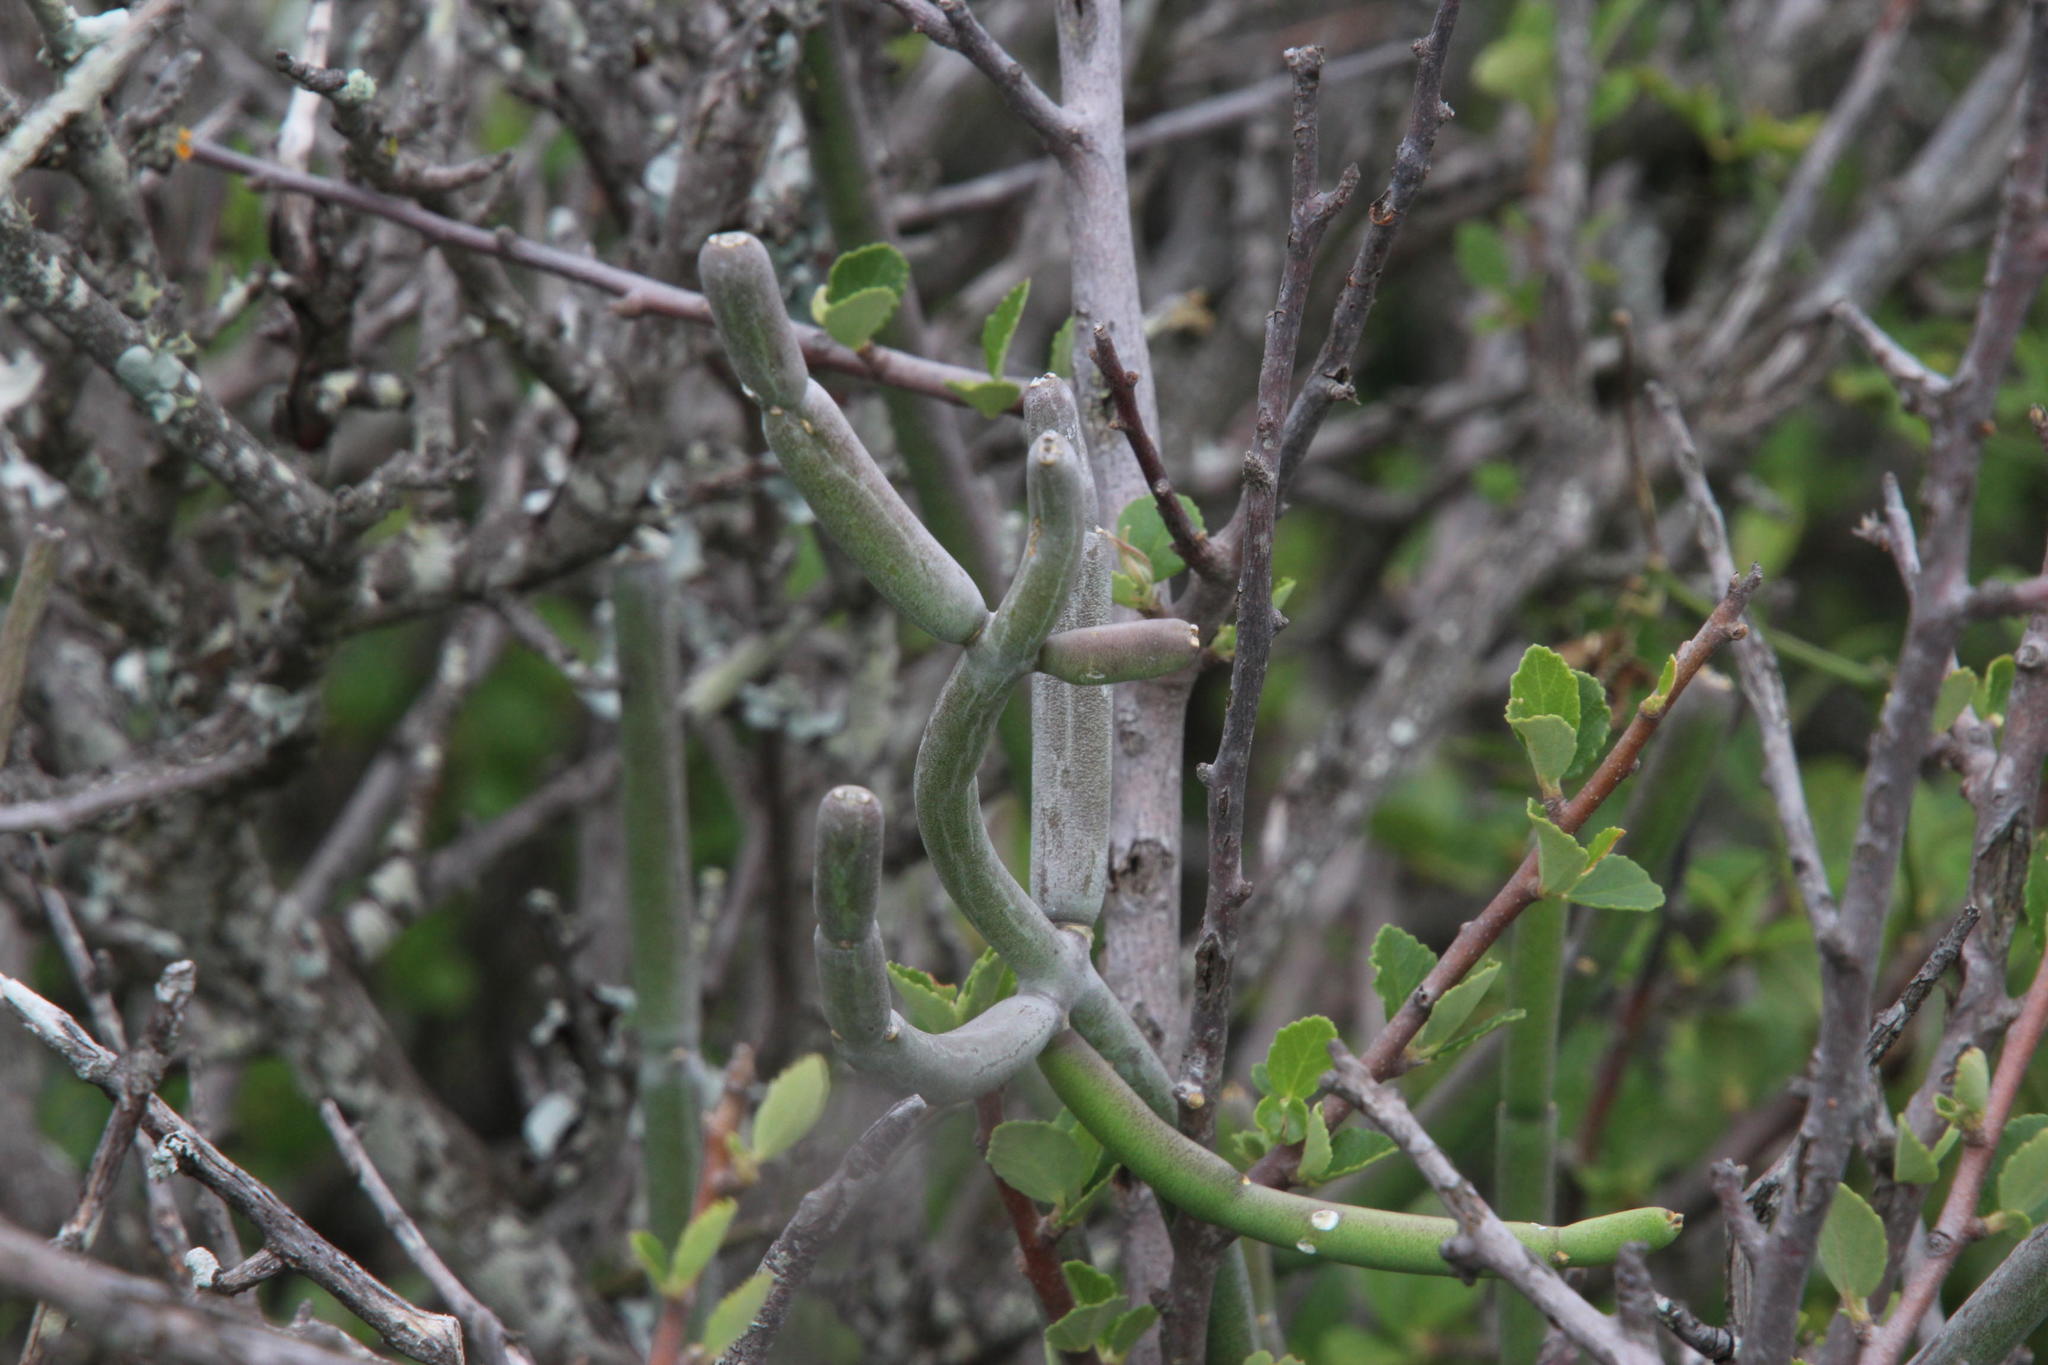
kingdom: Plantae
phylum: Tracheophyta
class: Magnoliopsida
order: Gentianales
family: Apocynaceae
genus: Cynanchum
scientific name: Cynanchum viminale
